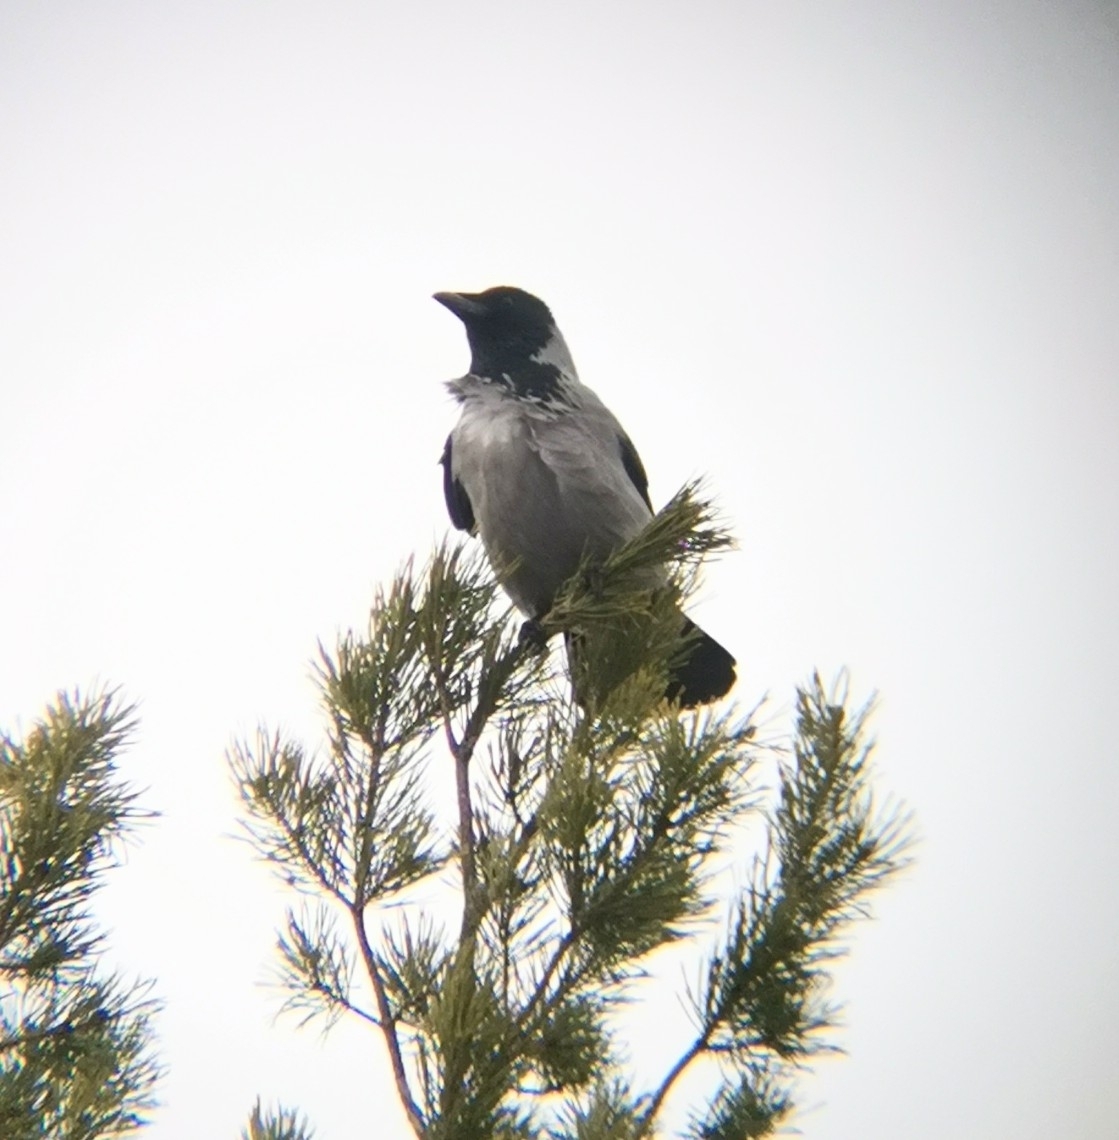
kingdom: Animalia
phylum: Chordata
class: Aves
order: Passeriformes
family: Corvidae
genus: Corvus
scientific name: Corvus cornix
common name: Hooded crow
